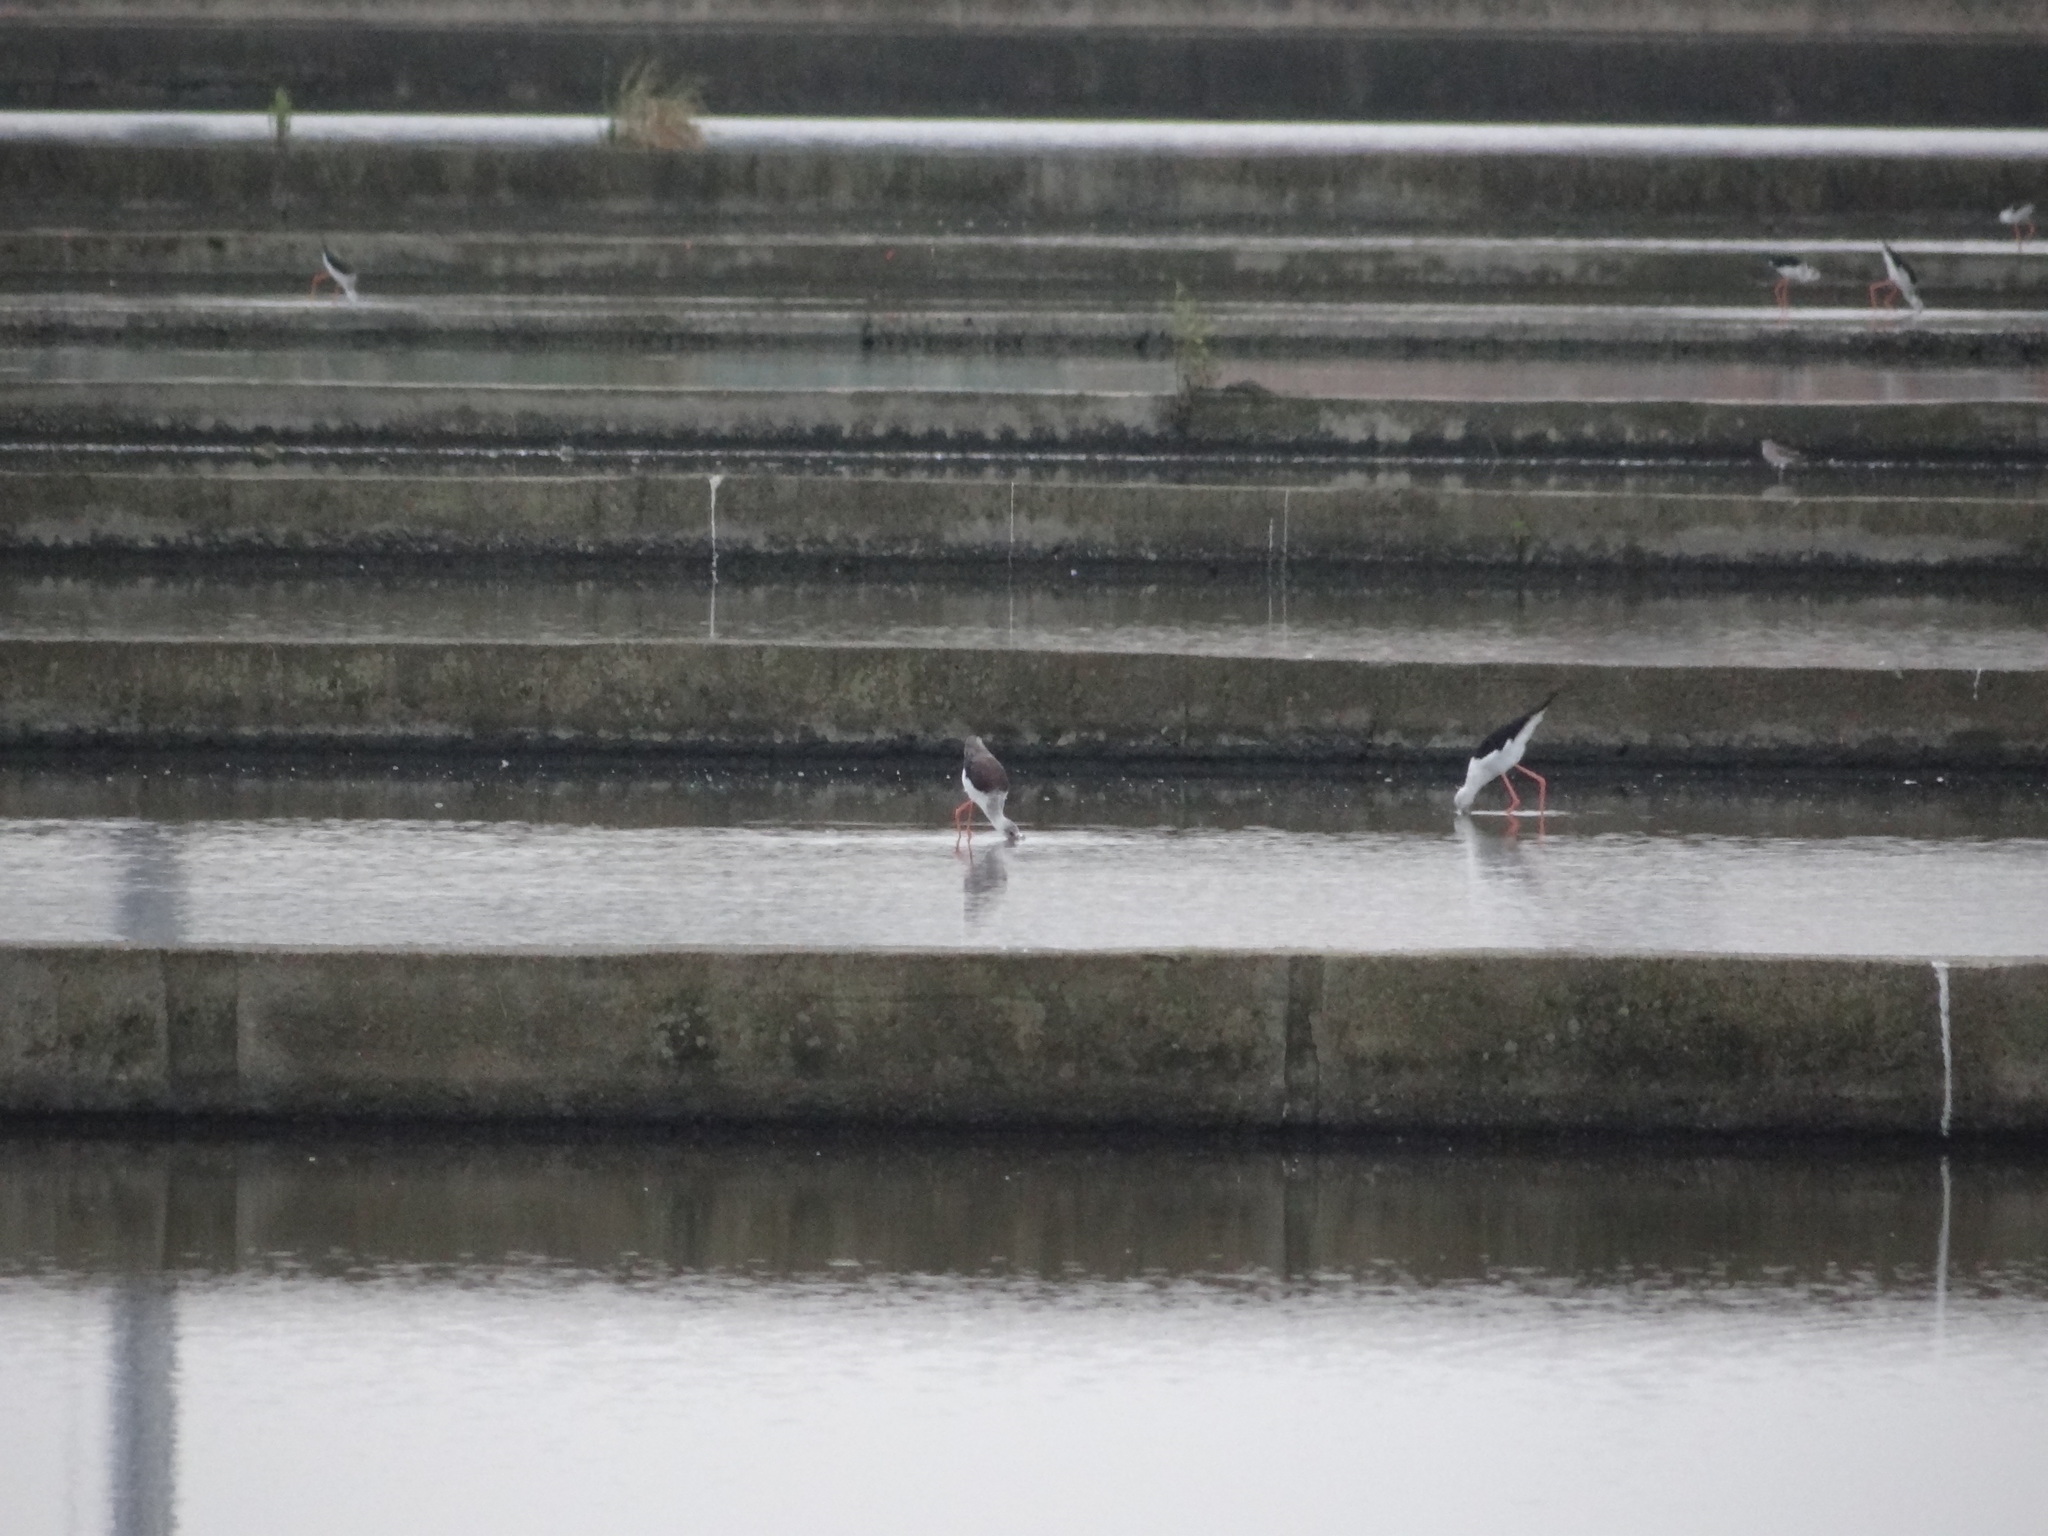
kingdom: Animalia
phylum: Chordata
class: Aves
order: Charadriiformes
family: Recurvirostridae
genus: Himantopus
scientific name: Himantopus himantopus
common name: Black-winged stilt
